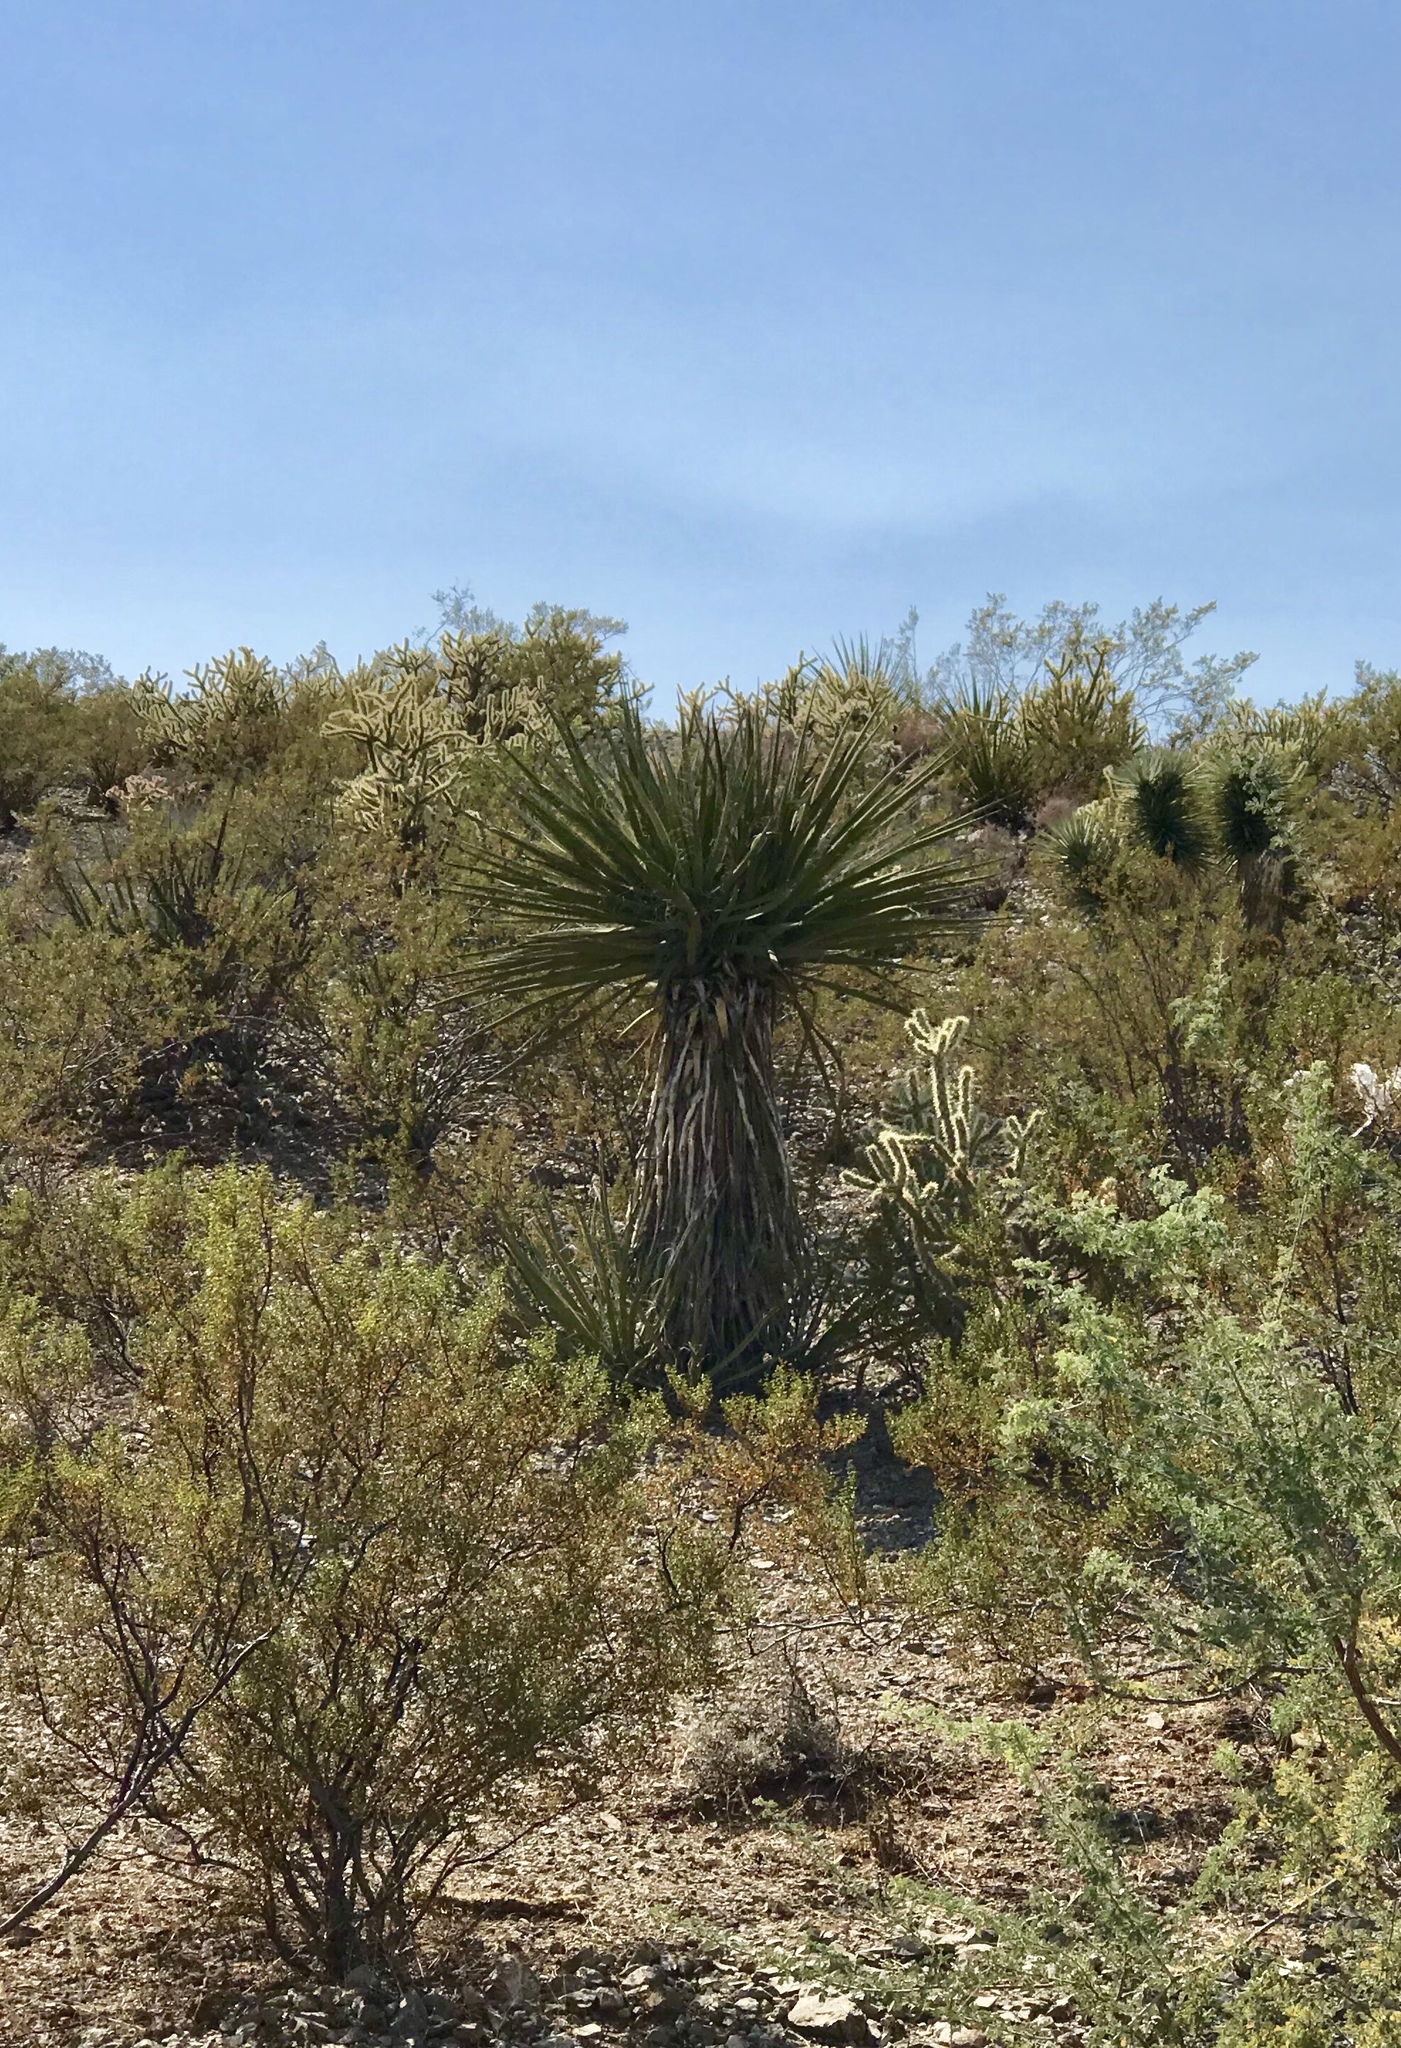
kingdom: Plantae
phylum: Tracheophyta
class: Liliopsida
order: Asparagales
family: Asparagaceae
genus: Yucca
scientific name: Yucca schidigera
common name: Mojave yucca
